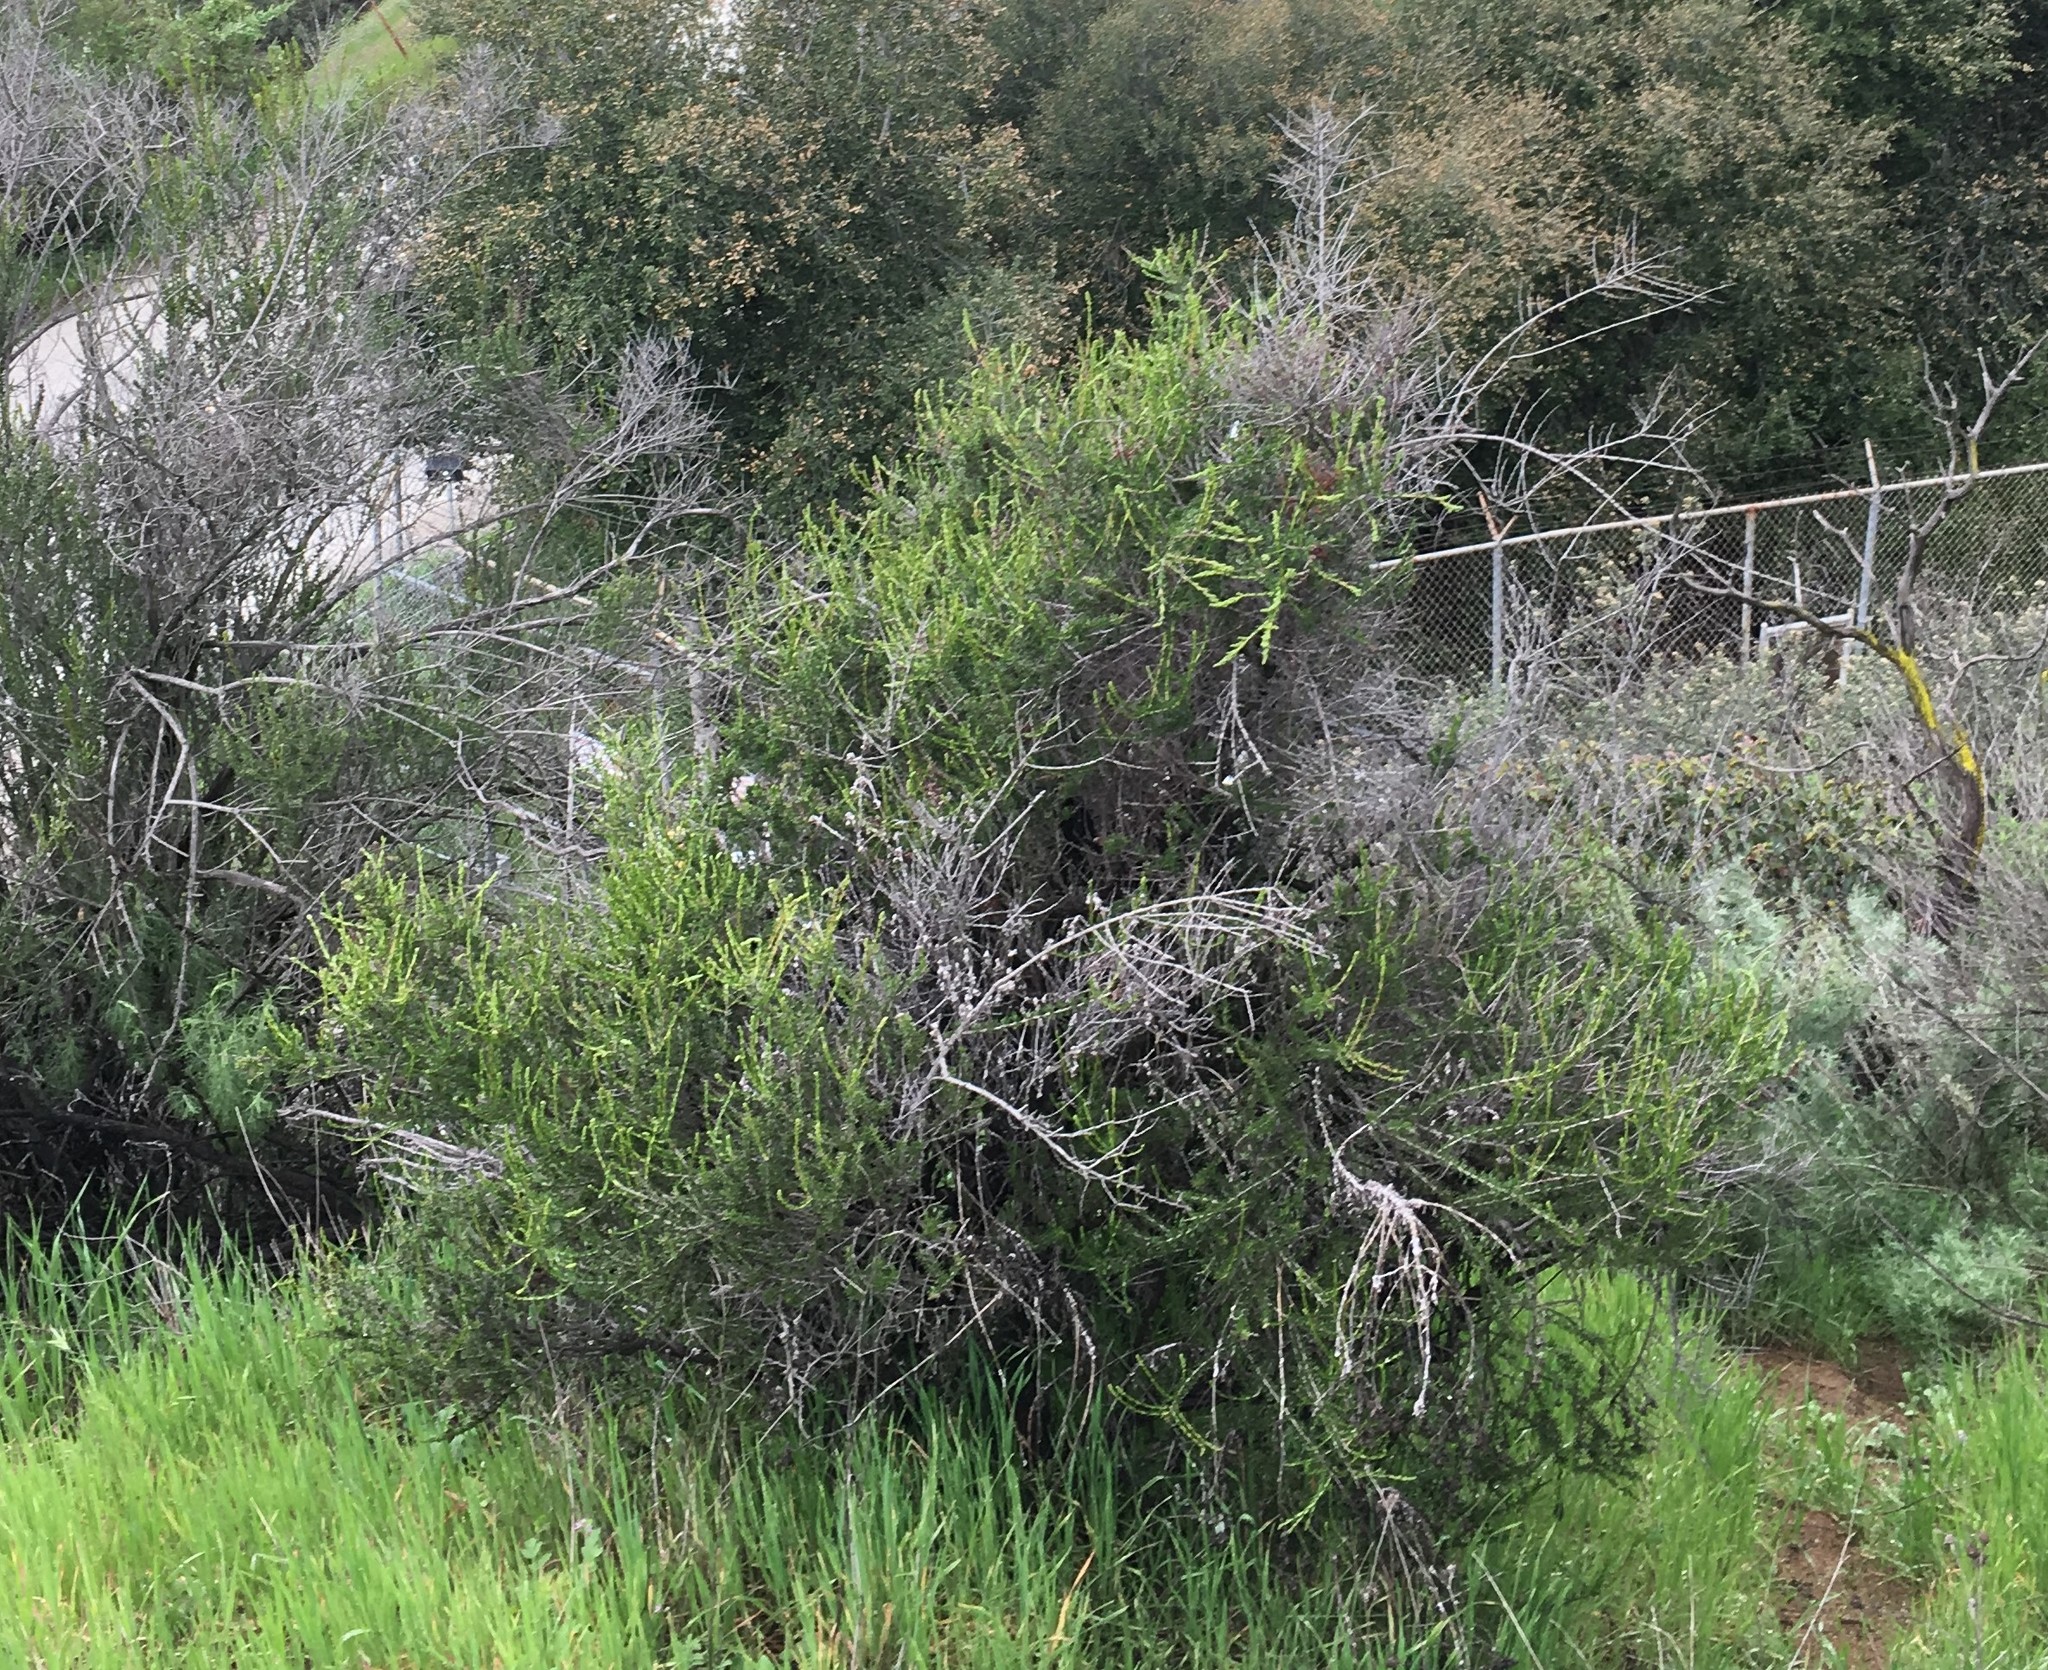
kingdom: Plantae
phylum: Tracheophyta
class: Magnoliopsida
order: Rosales
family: Rosaceae
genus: Adenostoma
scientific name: Adenostoma fasciculatum
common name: Chamise
